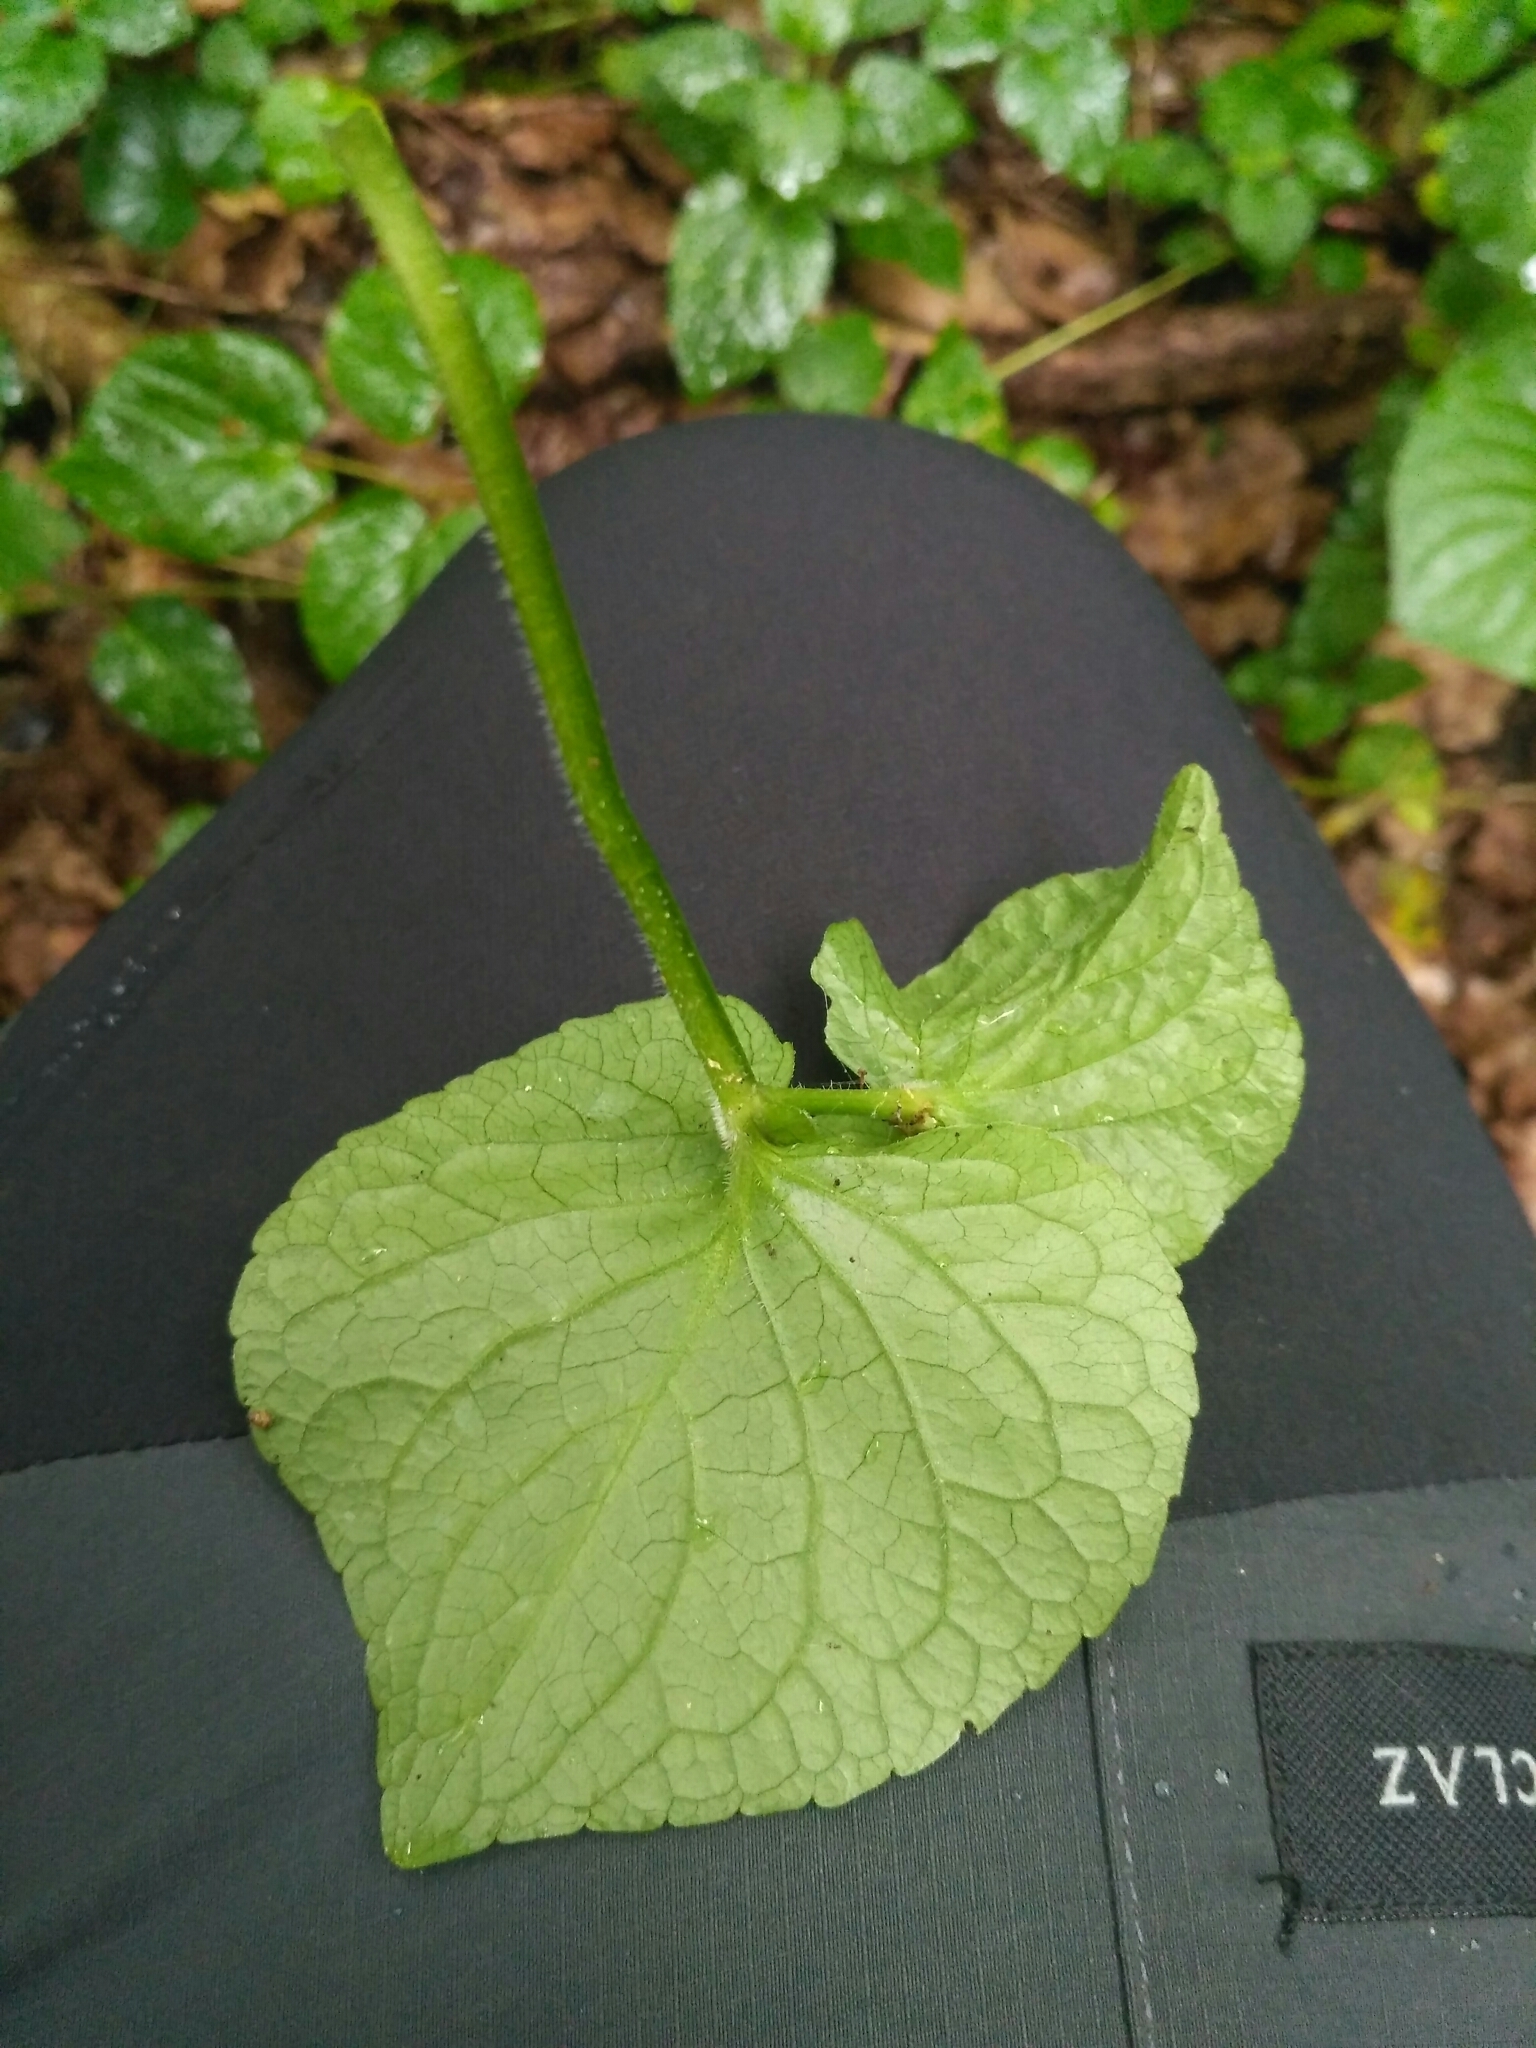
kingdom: Plantae
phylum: Tracheophyta
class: Magnoliopsida
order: Malpighiales
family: Violaceae
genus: Viola
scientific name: Viola mirabilis
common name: Wonder violet
